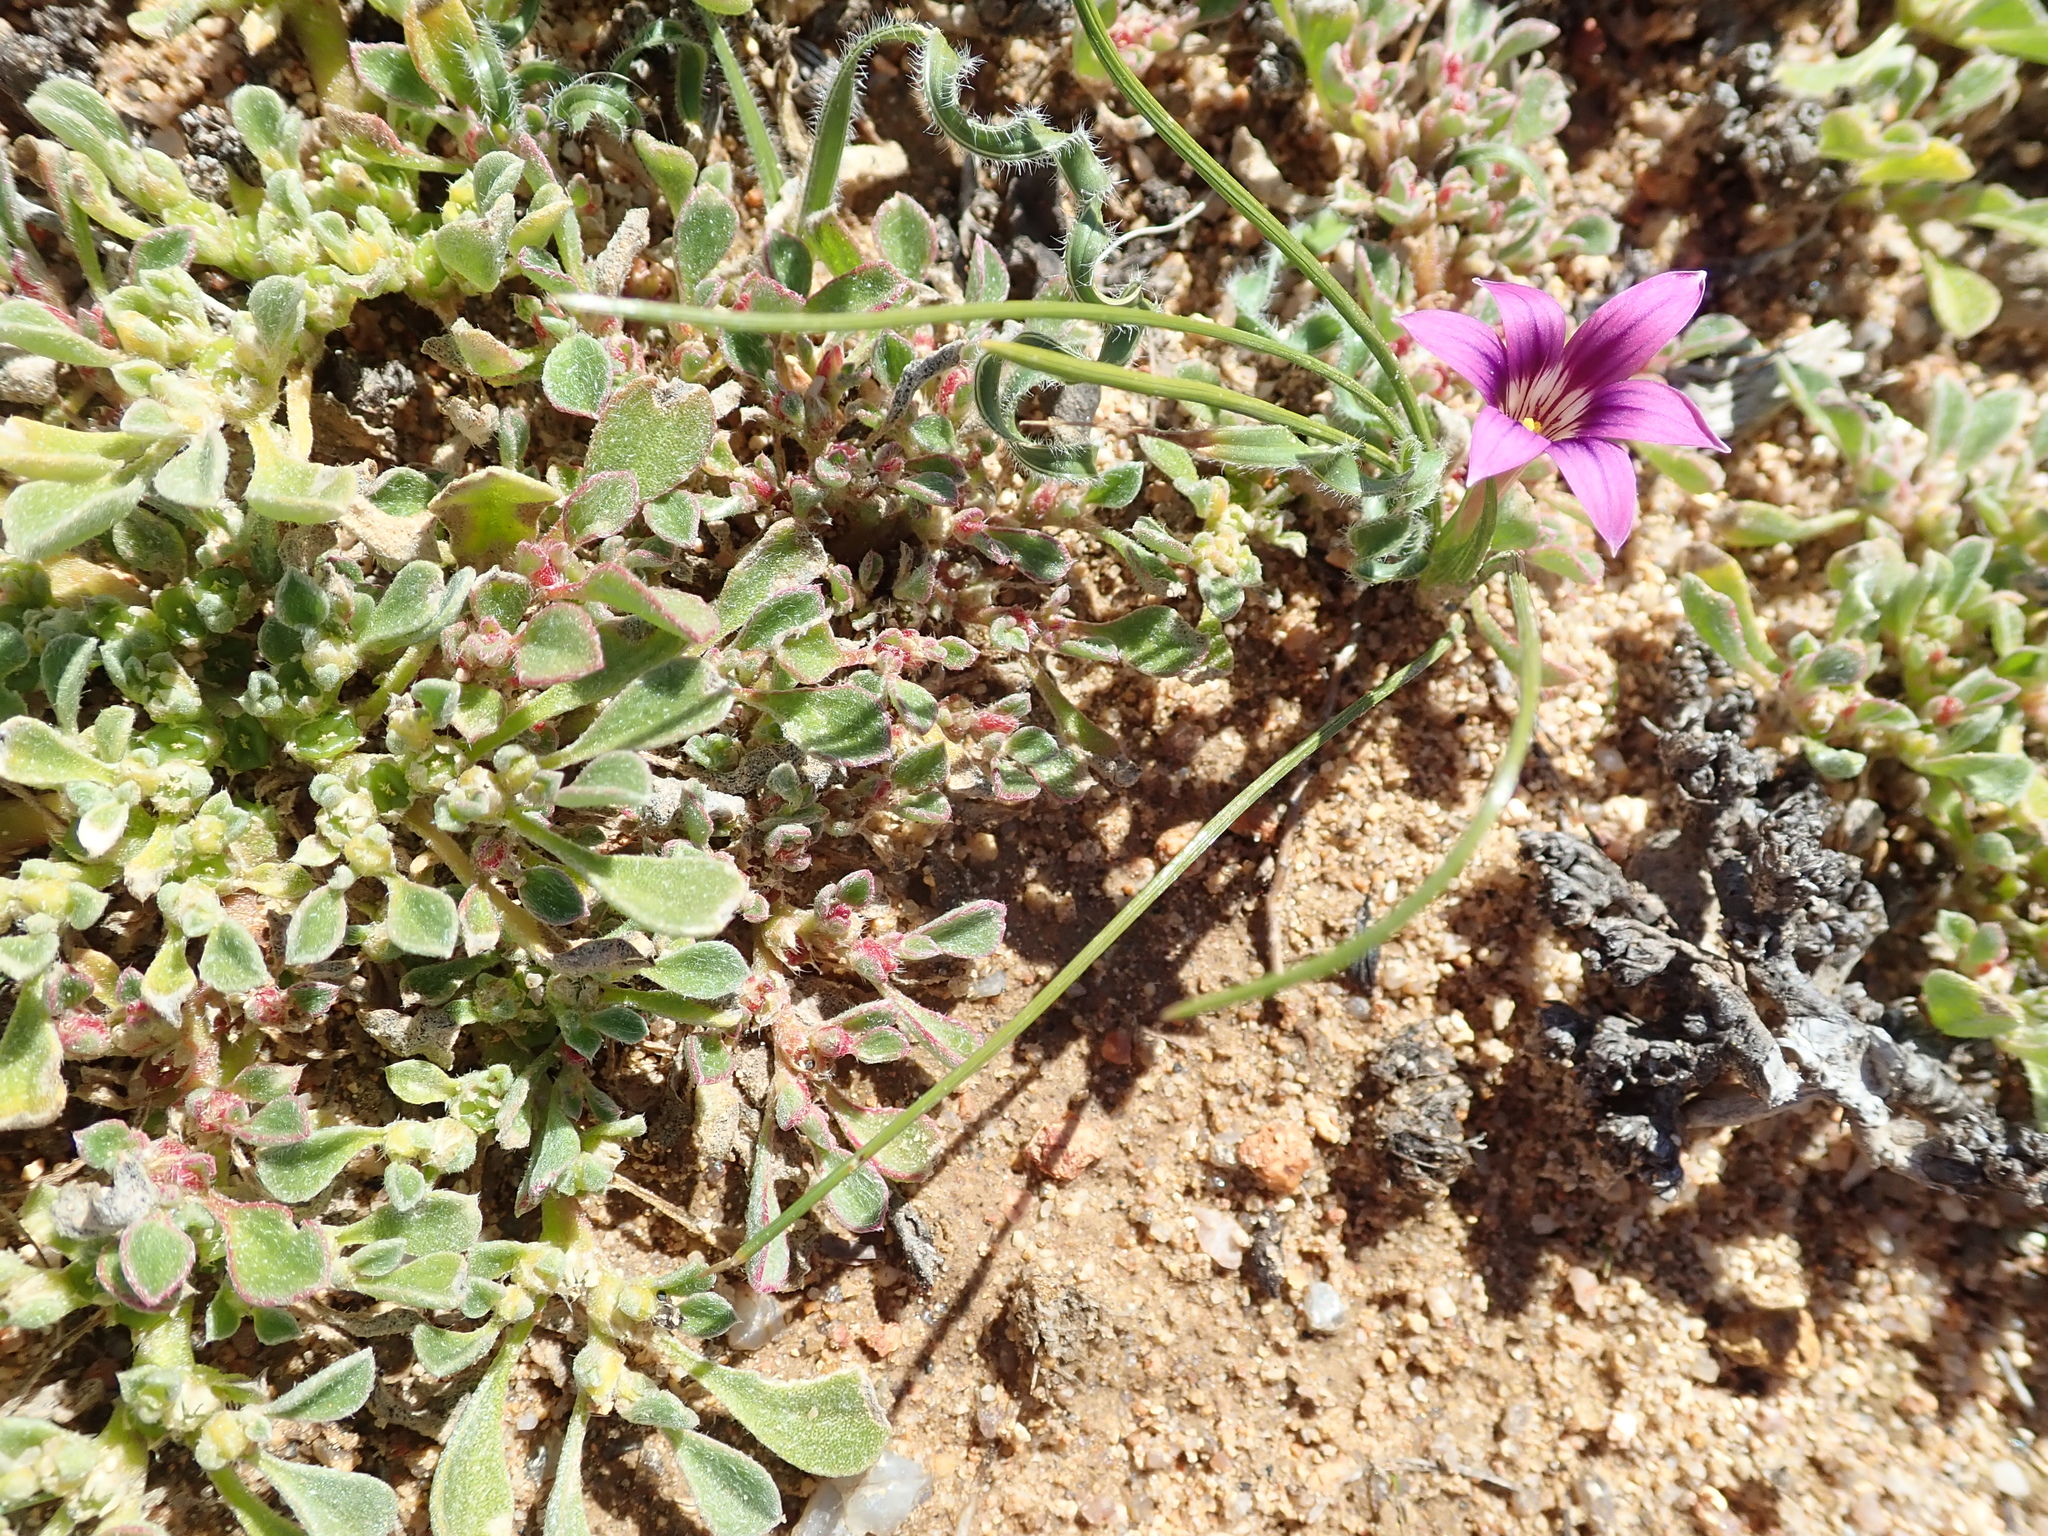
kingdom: Plantae
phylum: Tracheophyta
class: Liliopsida
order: Asparagales
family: Iridaceae
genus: Romulea
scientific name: Romulea kamisensis
